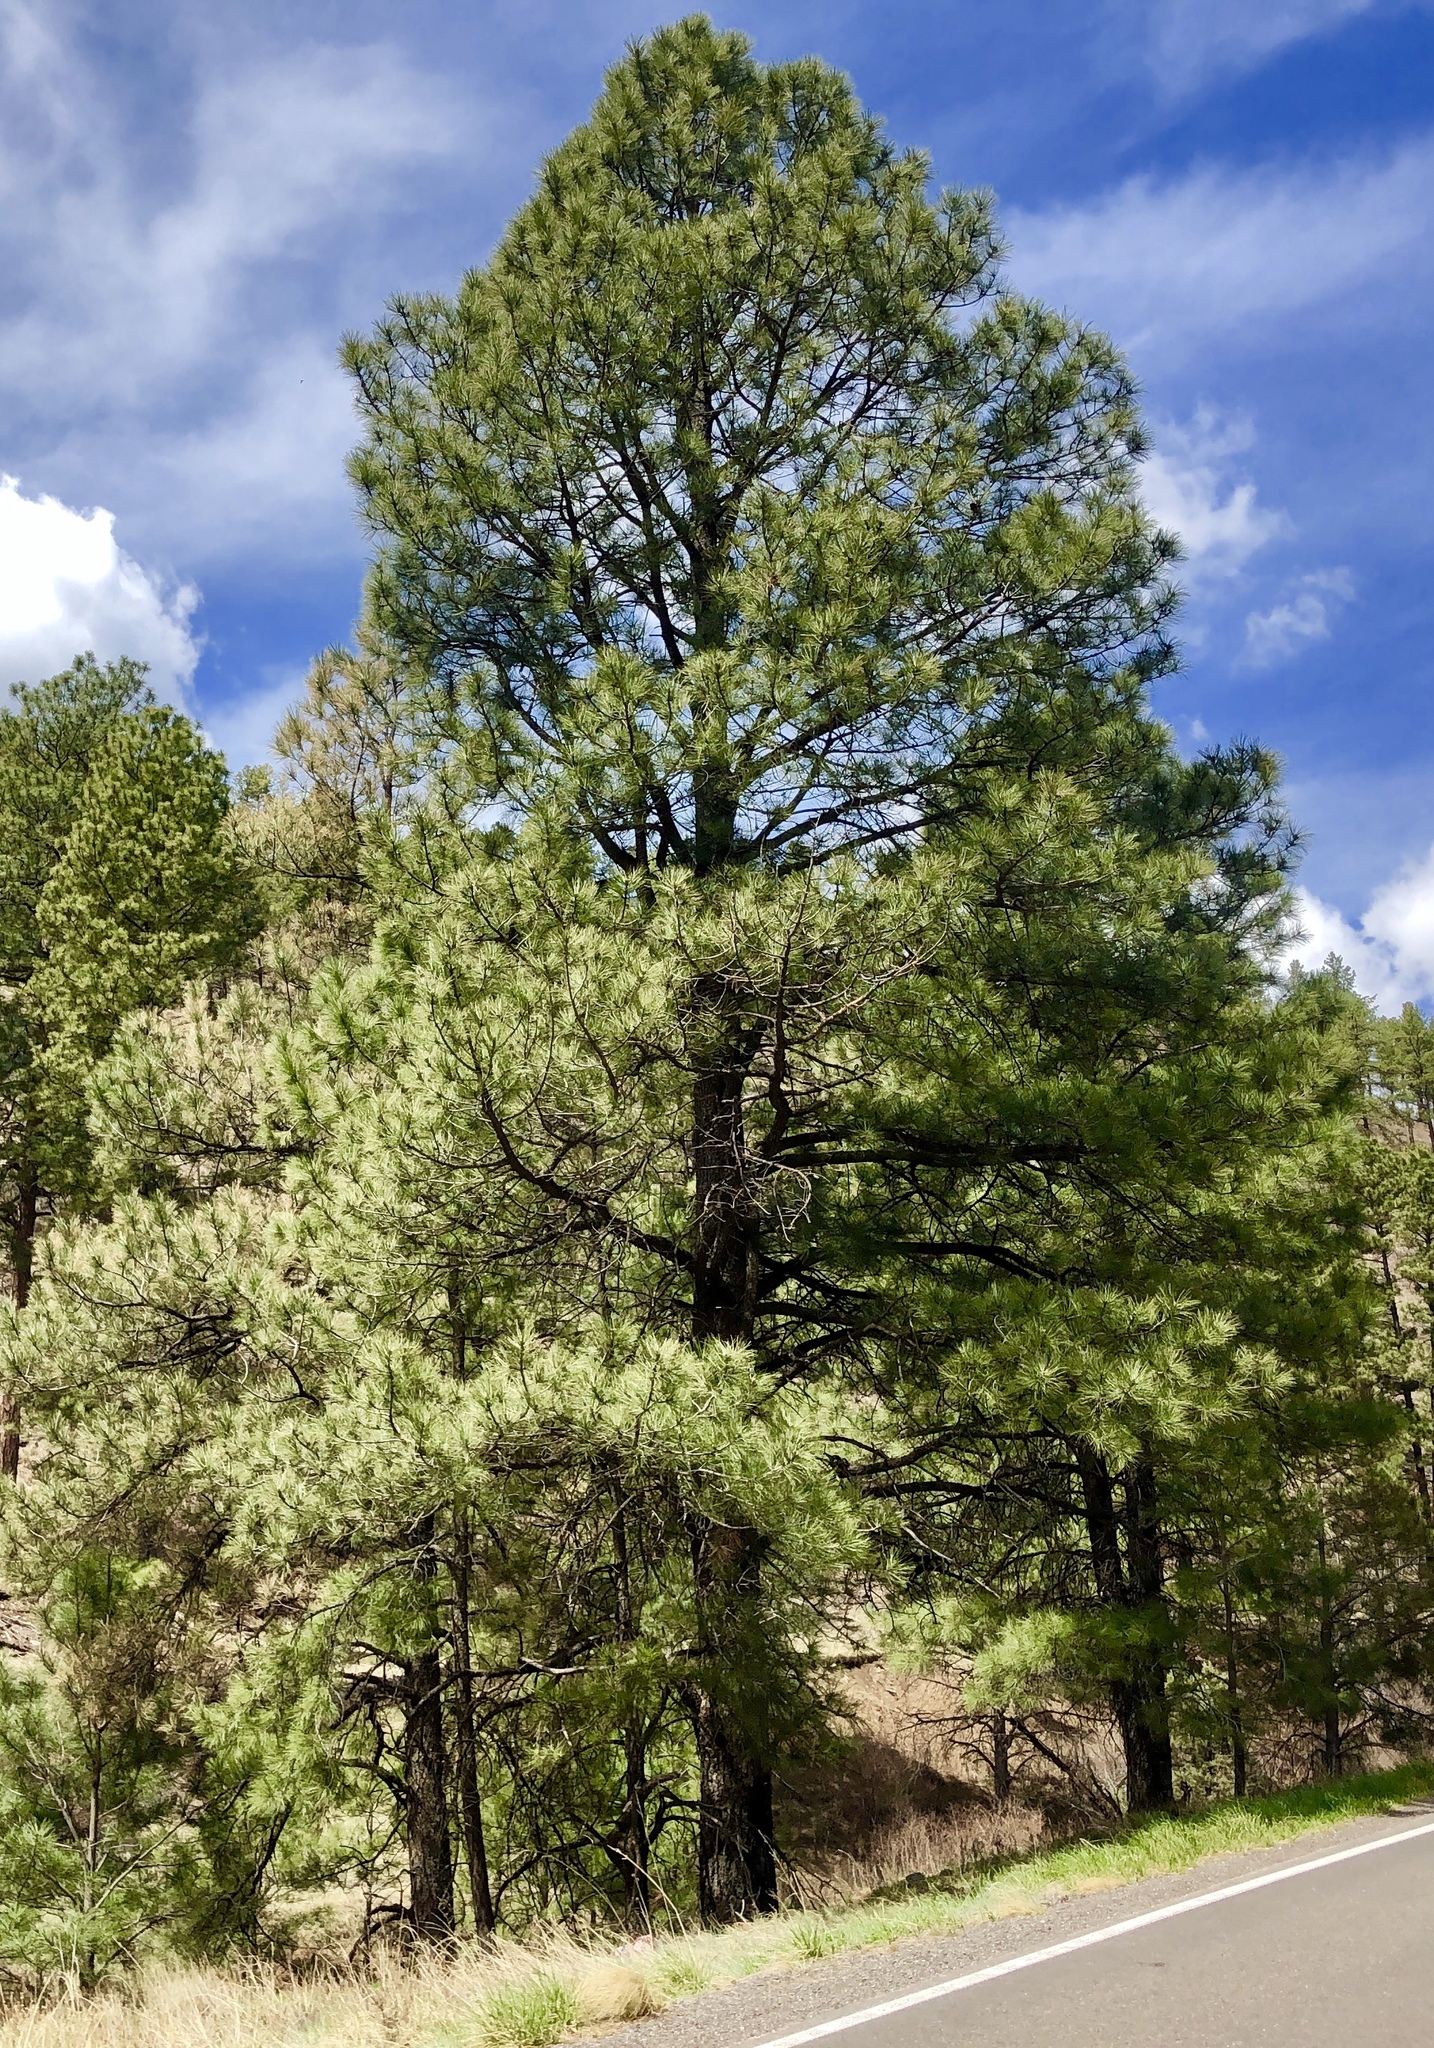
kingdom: Plantae
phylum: Tracheophyta
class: Pinopsida
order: Pinales
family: Pinaceae
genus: Pinus
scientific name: Pinus ponderosa
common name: Western yellow-pine
